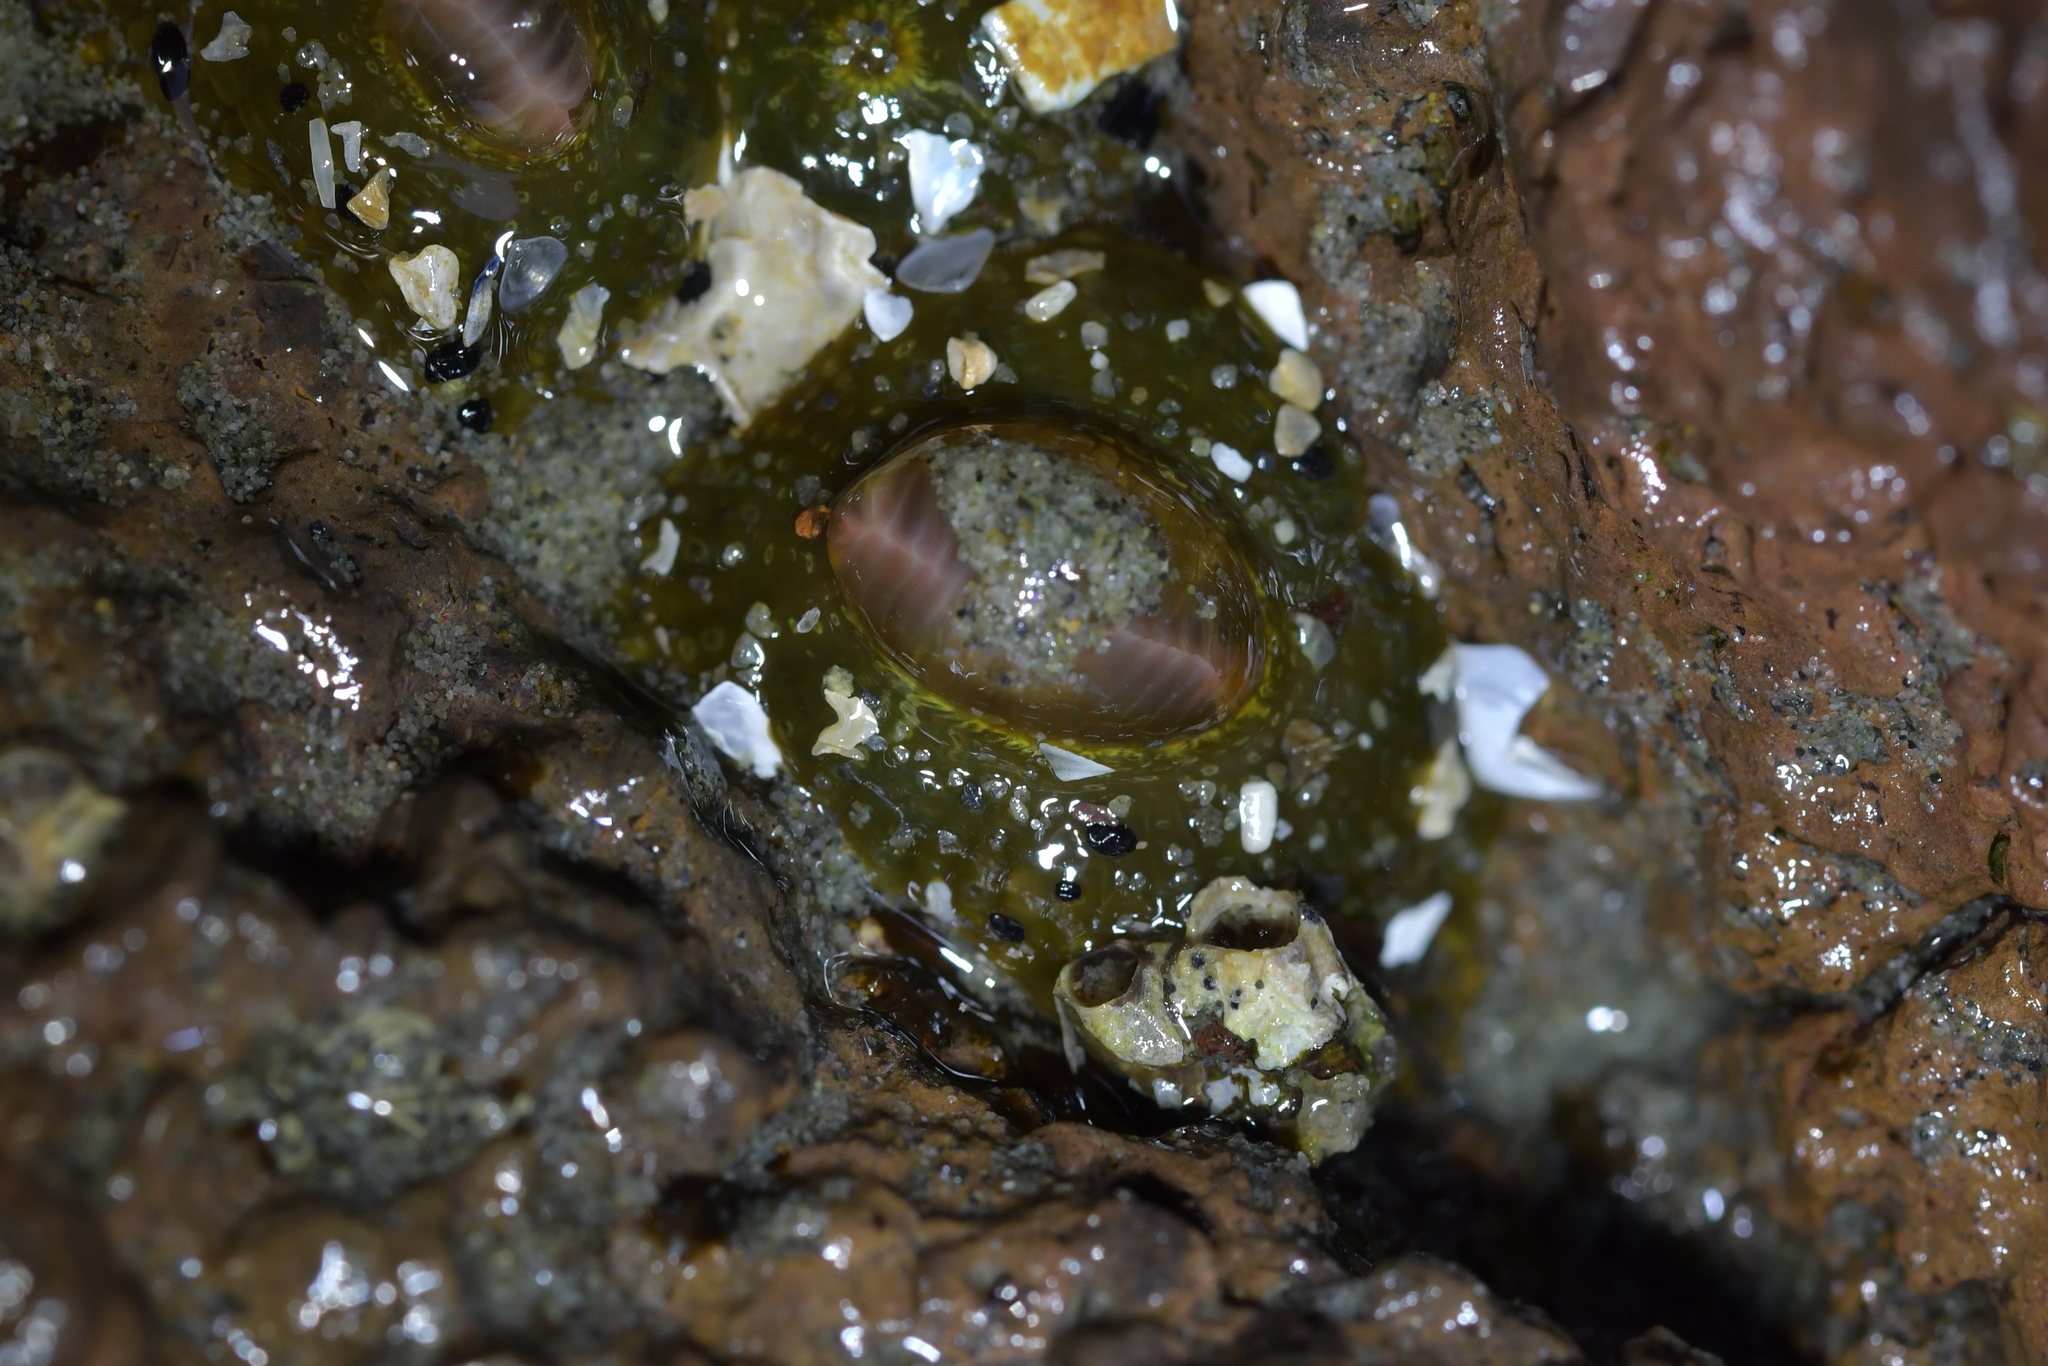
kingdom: Animalia
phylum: Cnidaria
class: Anthozoa
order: Actiniaria
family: Actiniidae
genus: Isactinia
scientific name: Isactinia olivacea
